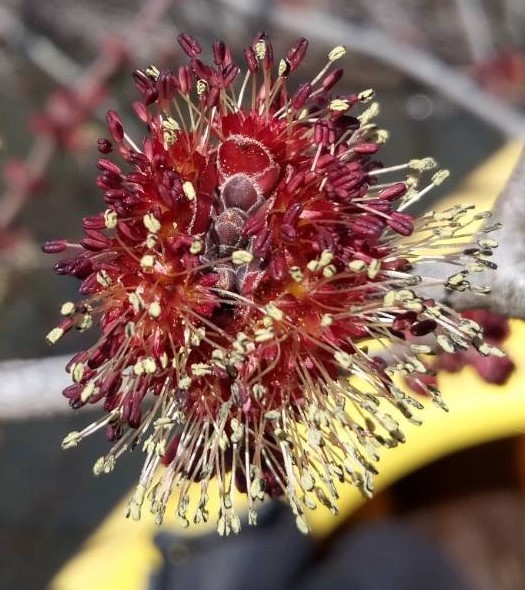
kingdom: Plantae
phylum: Tracheophyta
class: Magnoliopsida
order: Sapindales
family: Sapindaceae
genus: Acer
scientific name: Acer rubrum
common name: Red maple
